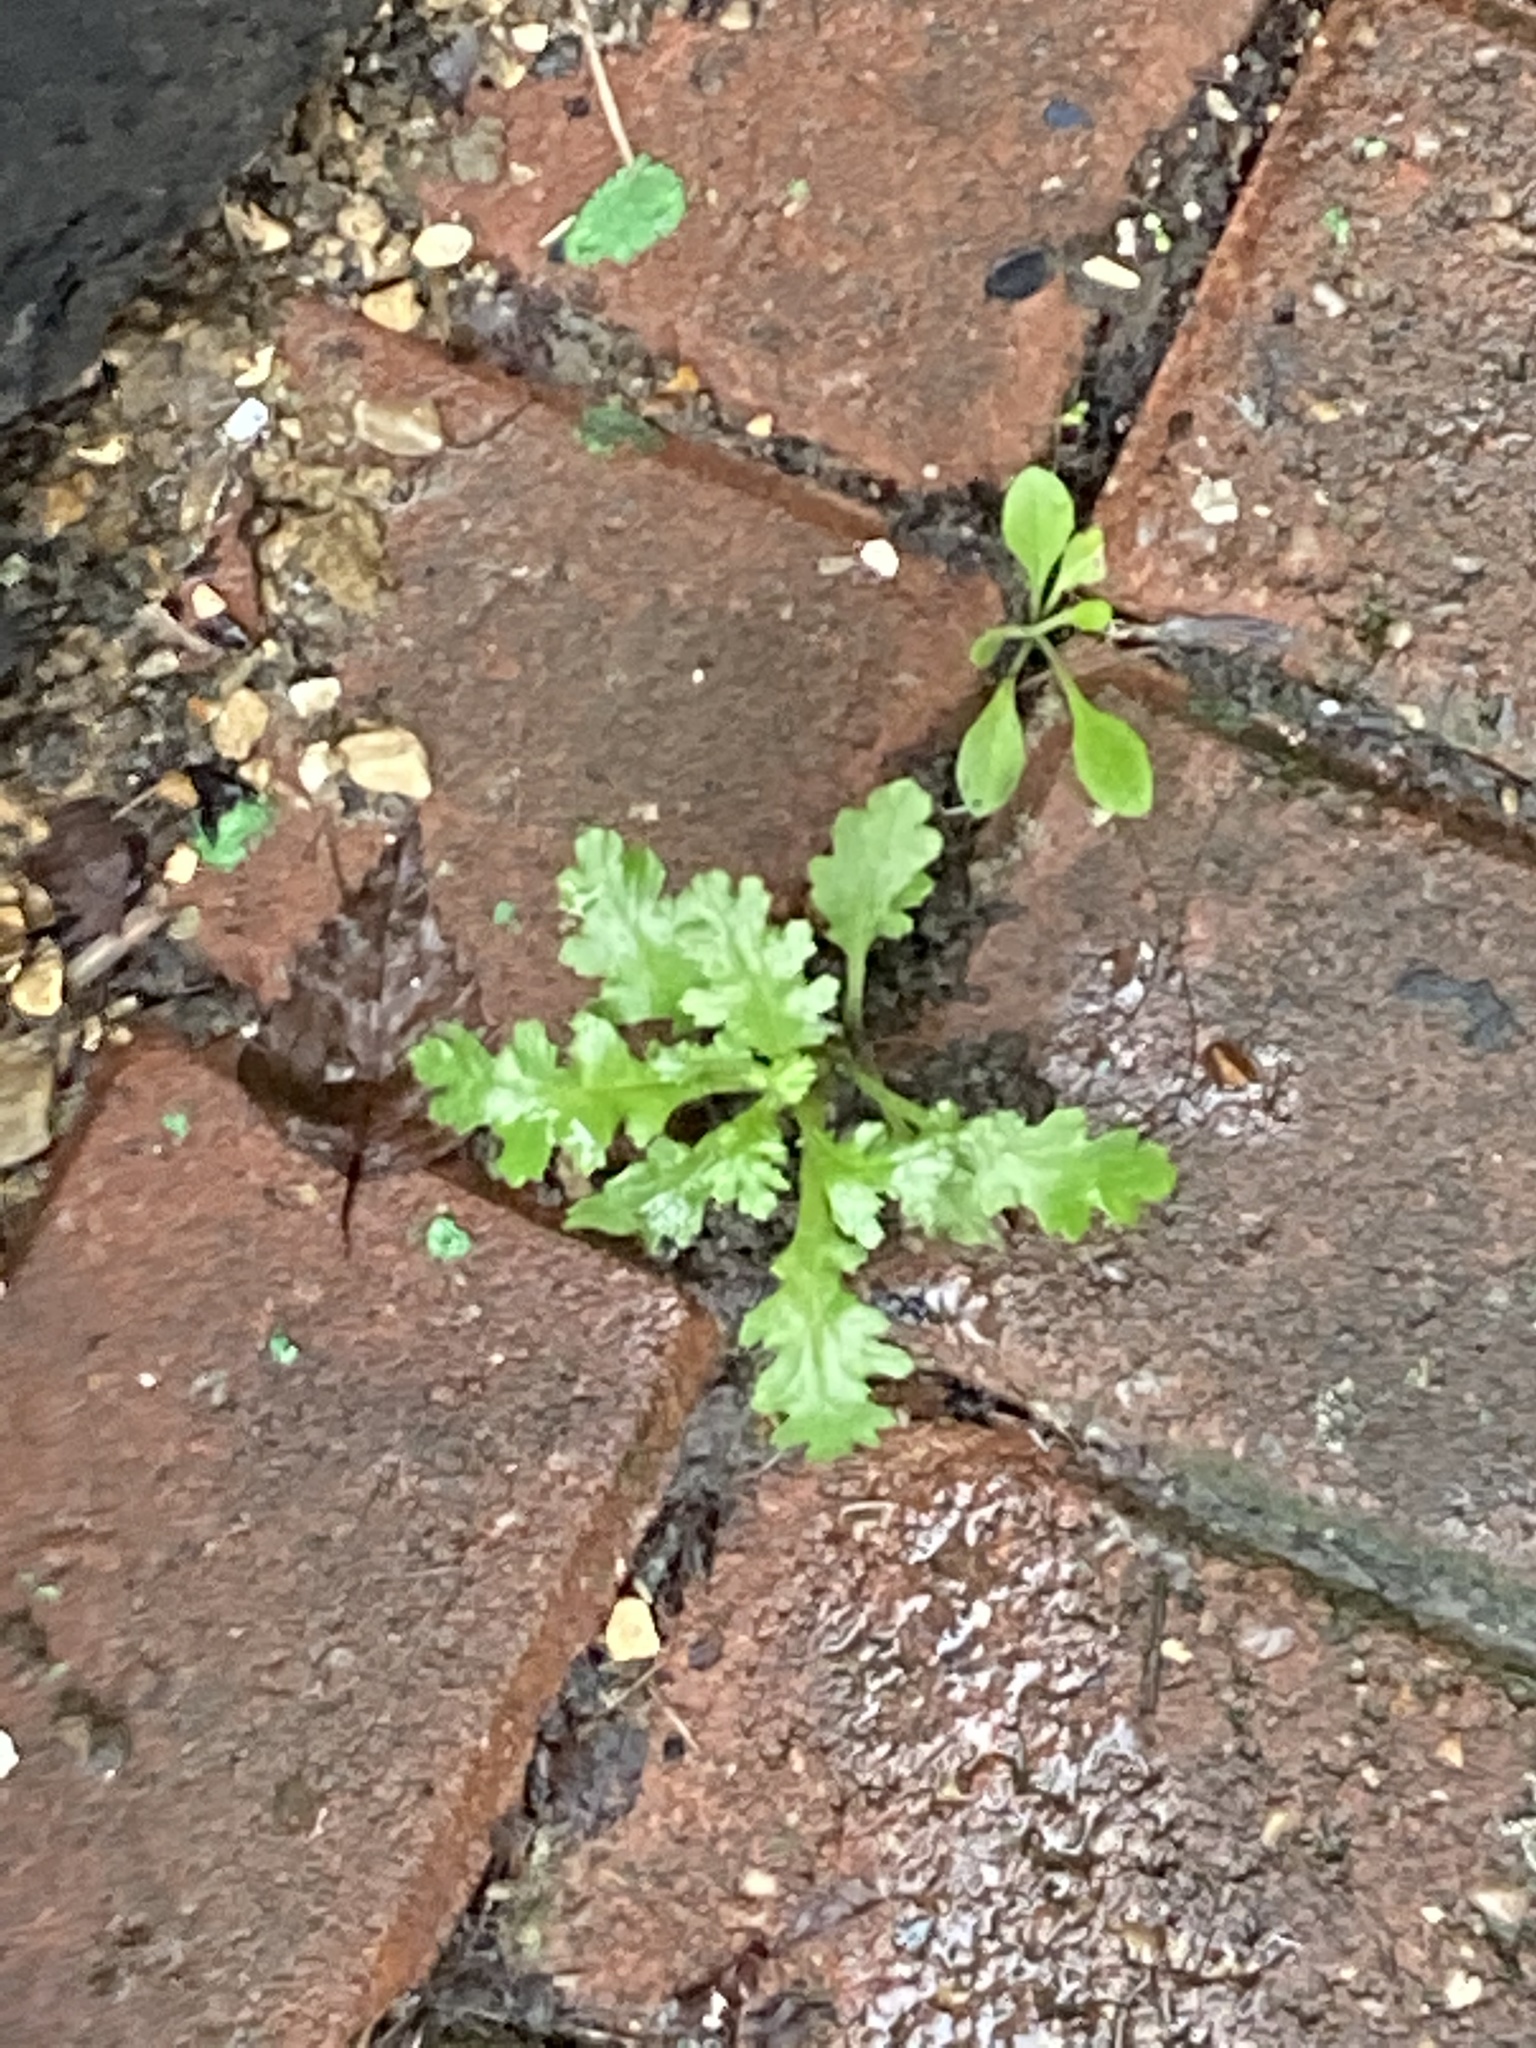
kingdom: Plantae
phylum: Tracheophyta
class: Magnoliopsida
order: Asterales
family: Asteraceae
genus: Senecio
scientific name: Senecio vulgaris
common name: Old-man-in-the-spring
